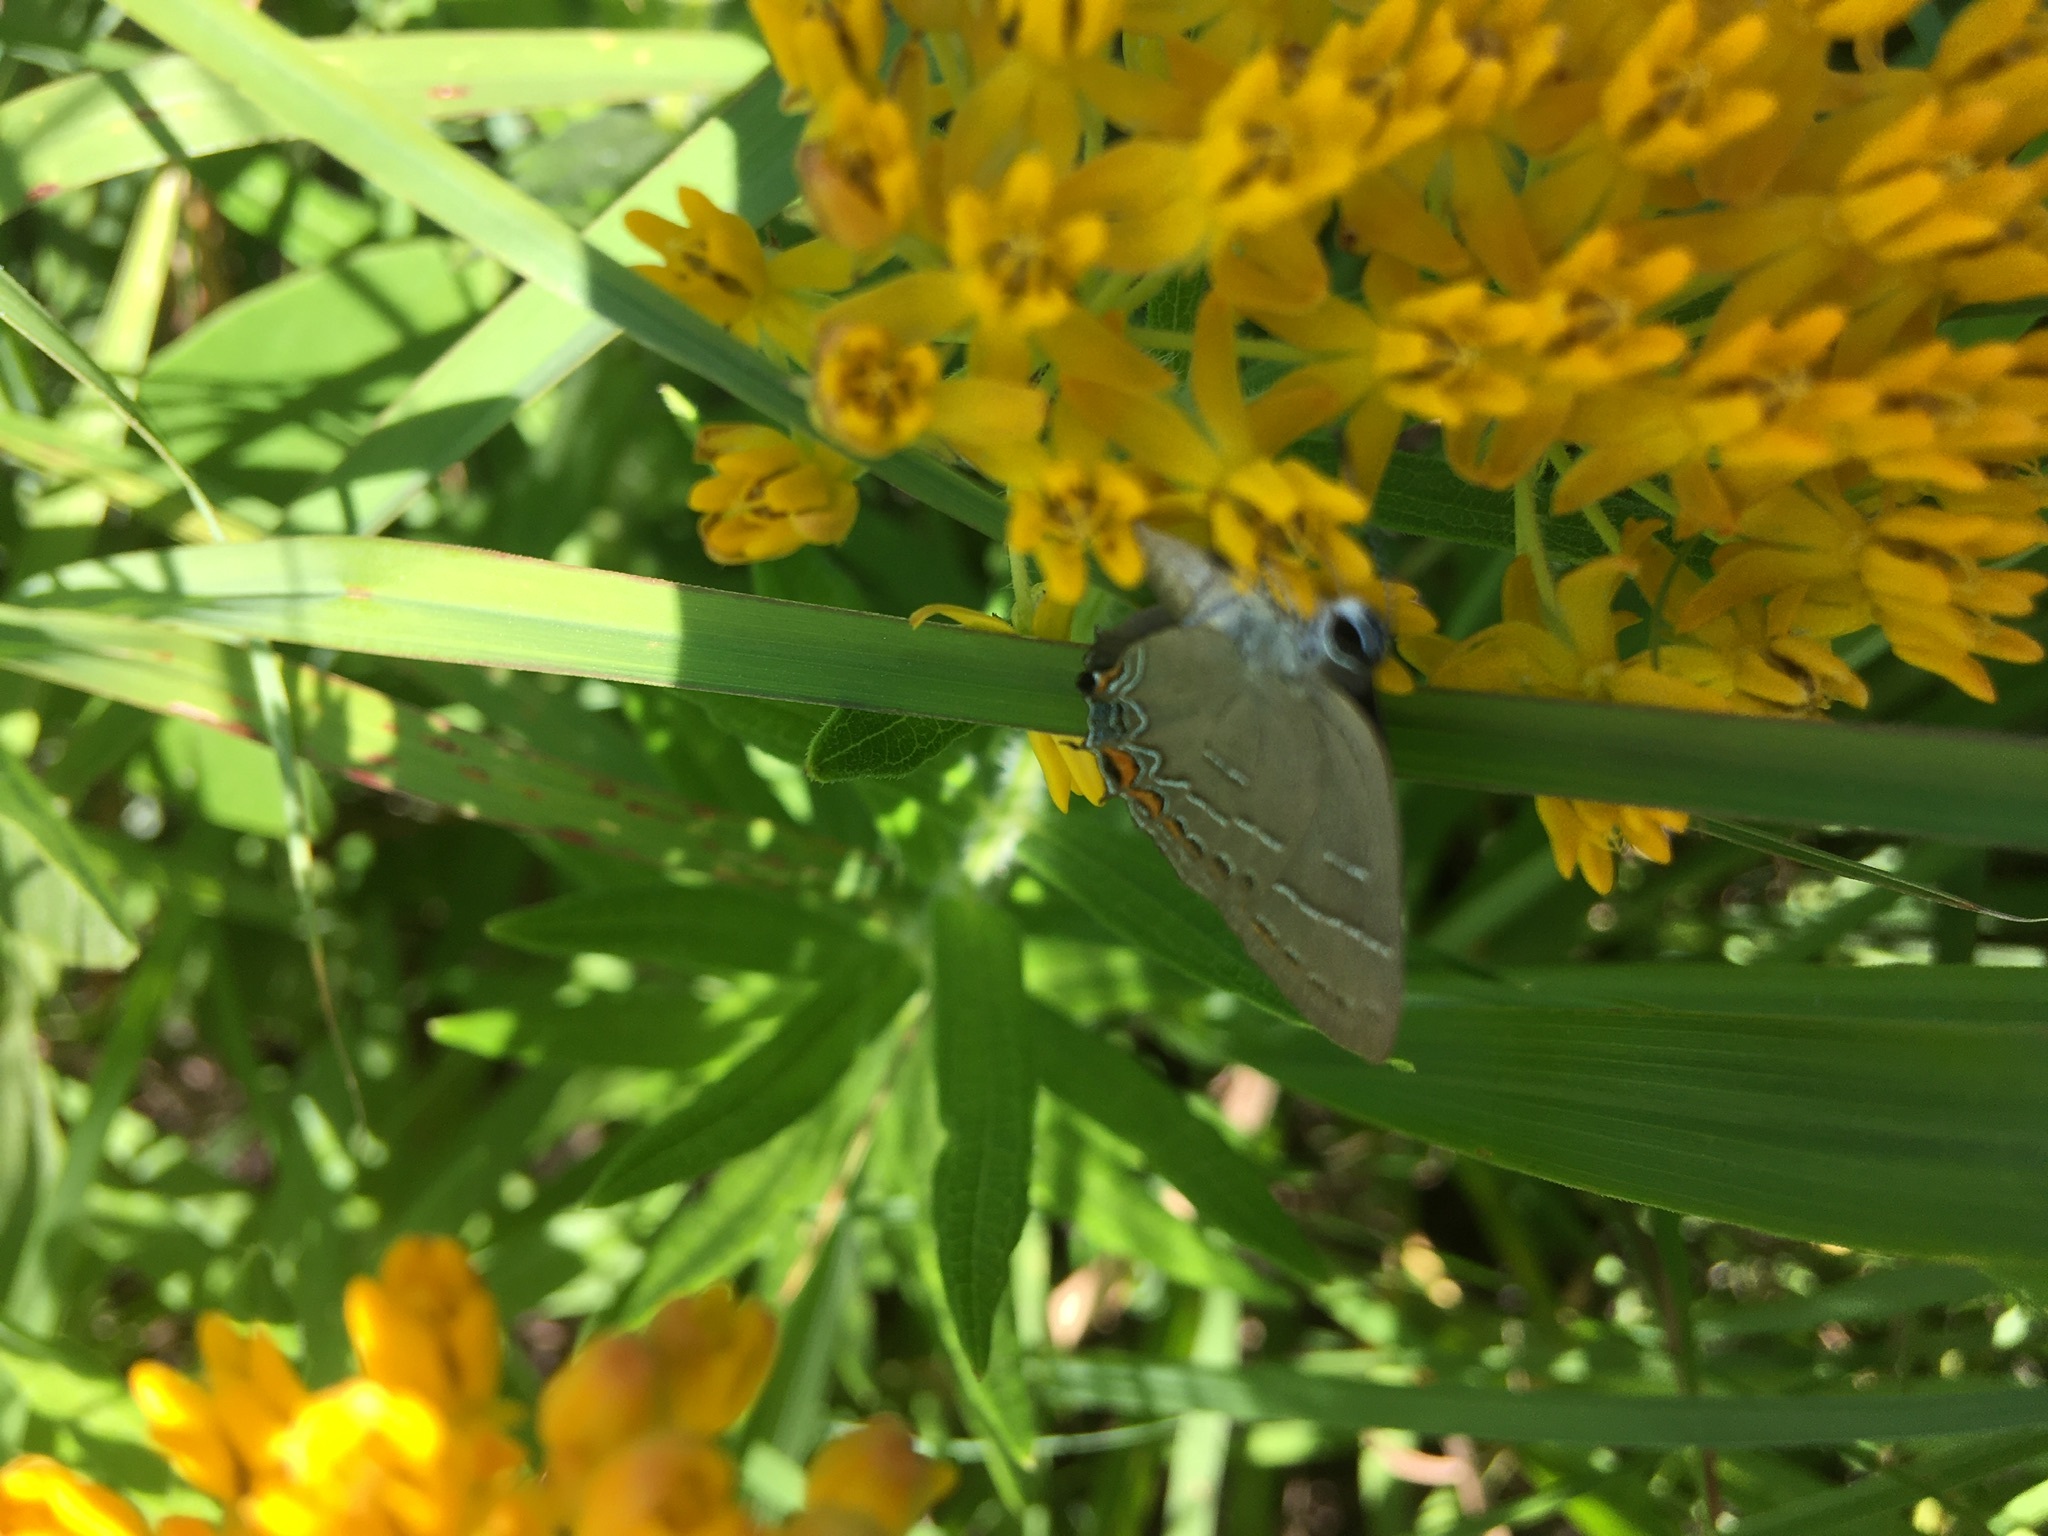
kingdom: Animalia
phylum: Arthropoda
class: Insecta
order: Lepidoptera
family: Lycaenidae
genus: Phaeostrymon
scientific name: Phaeostrymon alcestis
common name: Soapberry hairstreak
